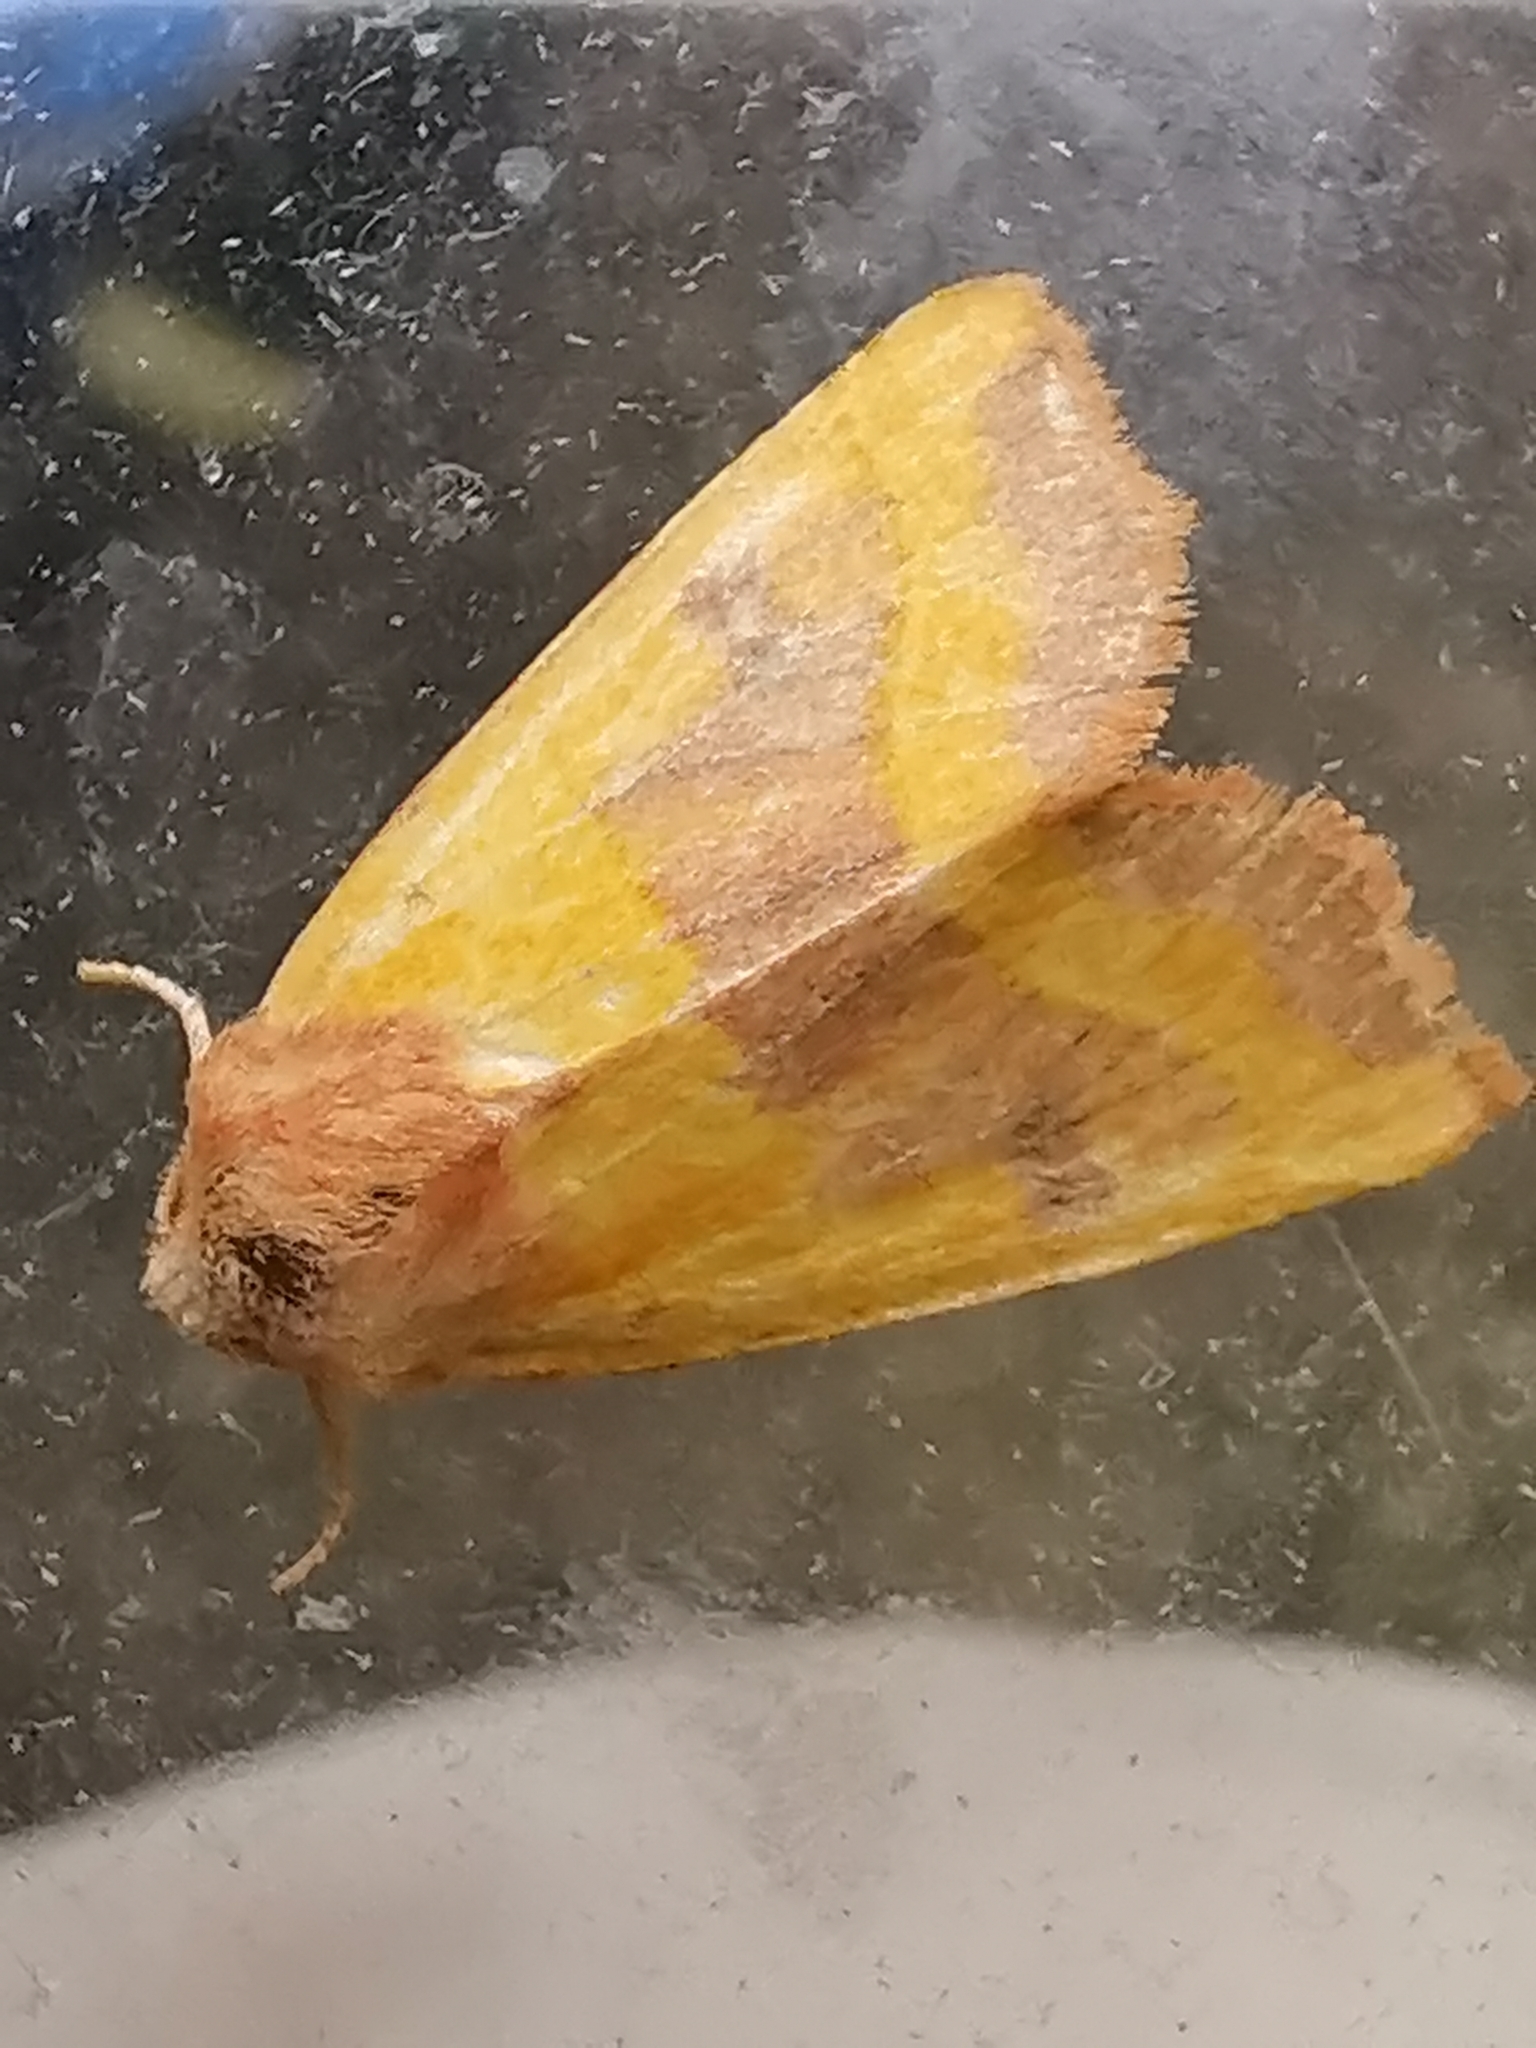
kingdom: Animalia
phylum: Arthropoda
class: Insecta
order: Lepidoptera
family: Noctuidae
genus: Atethmia
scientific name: Atethmia centrago
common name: Centre-barred sallow
